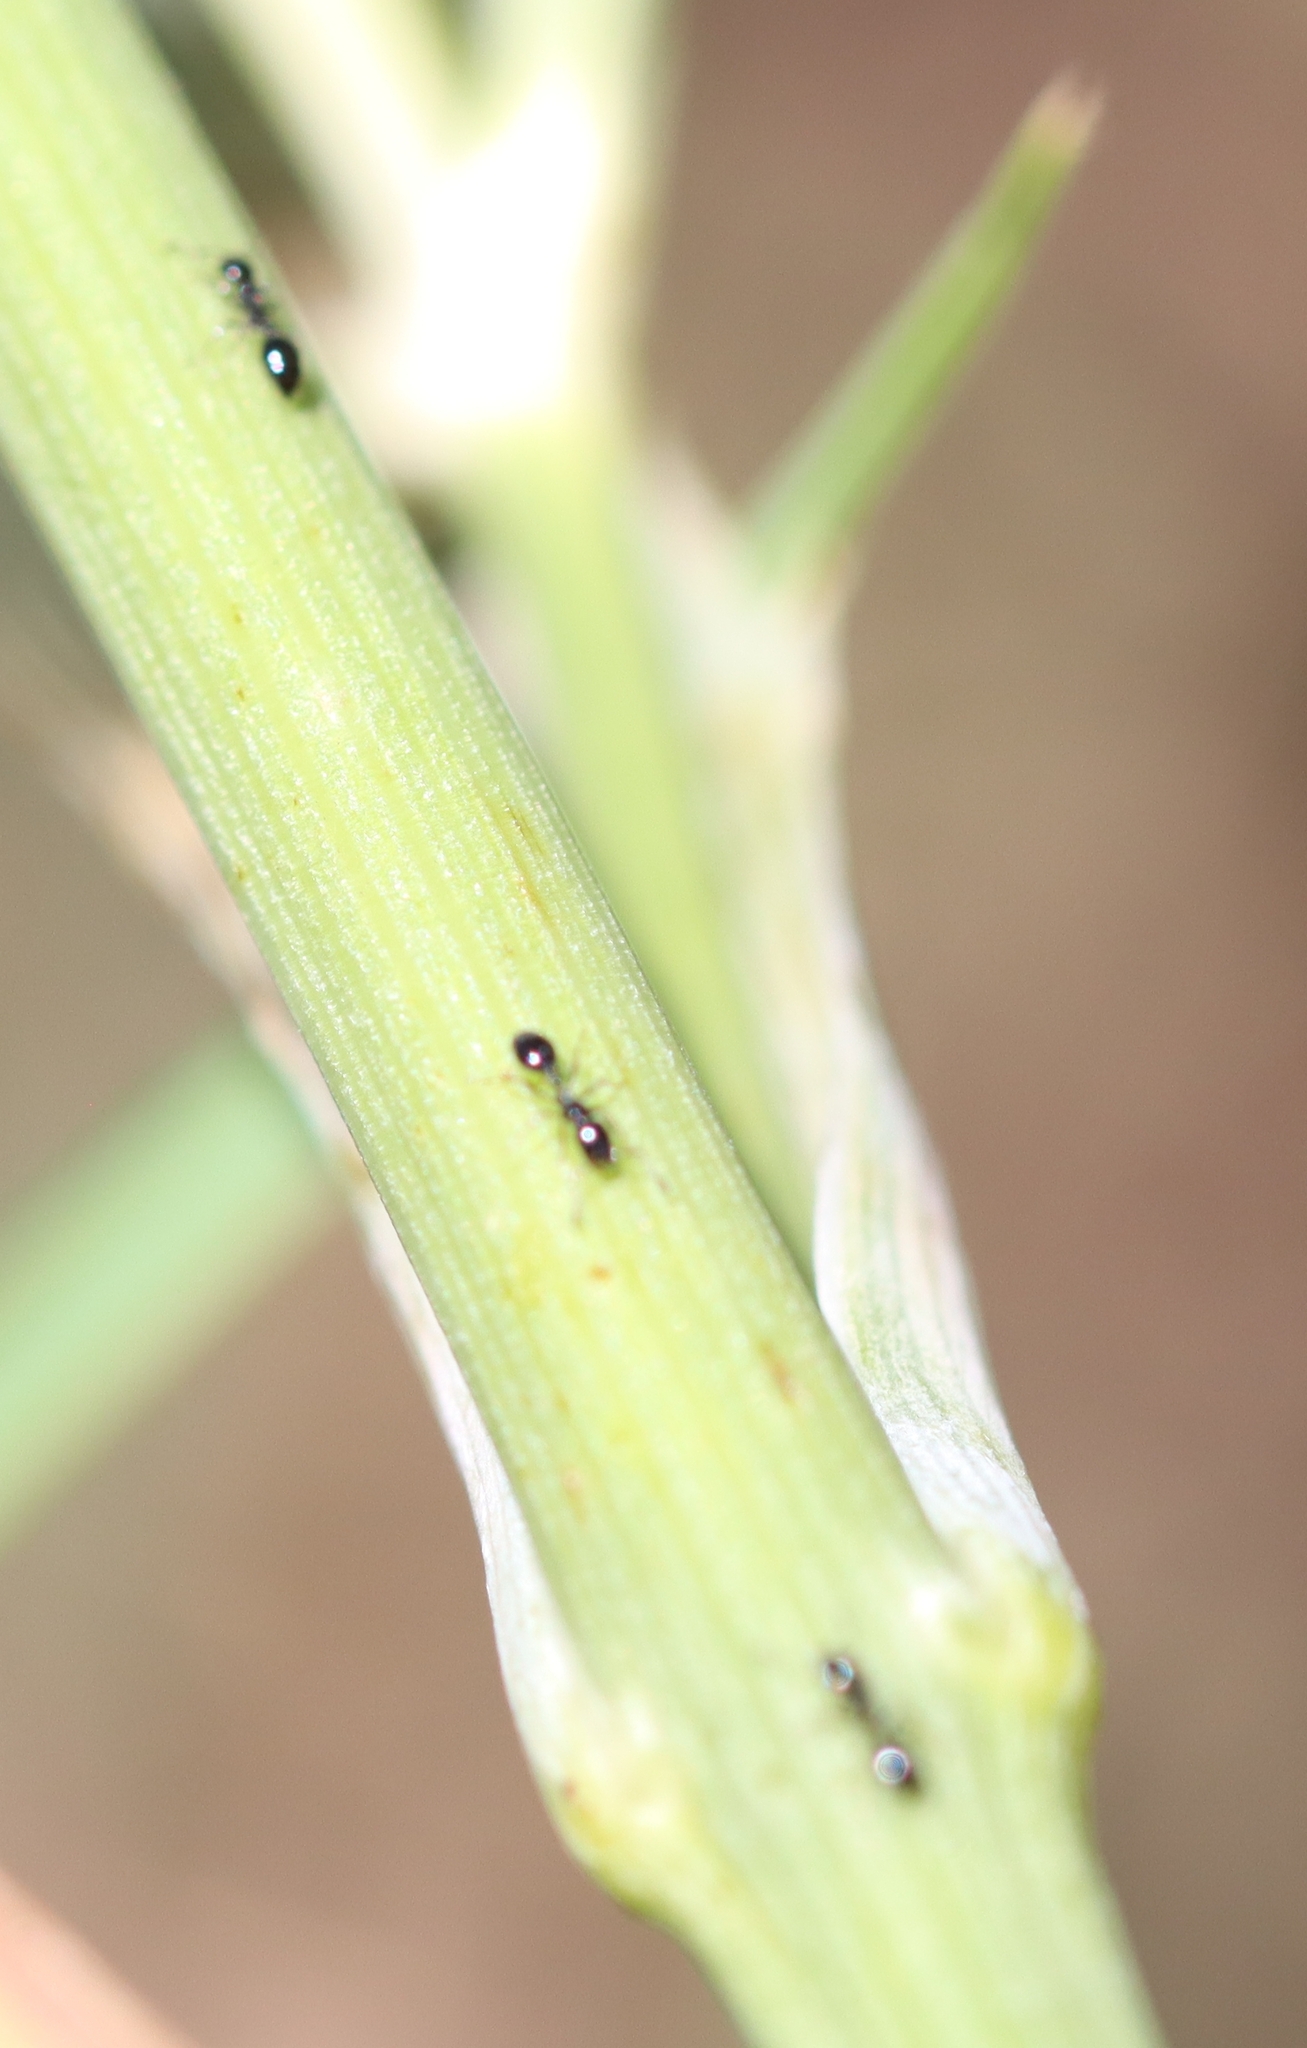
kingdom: Animalia
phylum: Arthropoda
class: Insecta
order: Hymenoptera
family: Formicidae
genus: Monomorium
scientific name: Monomorium minimum
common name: Little black ant
